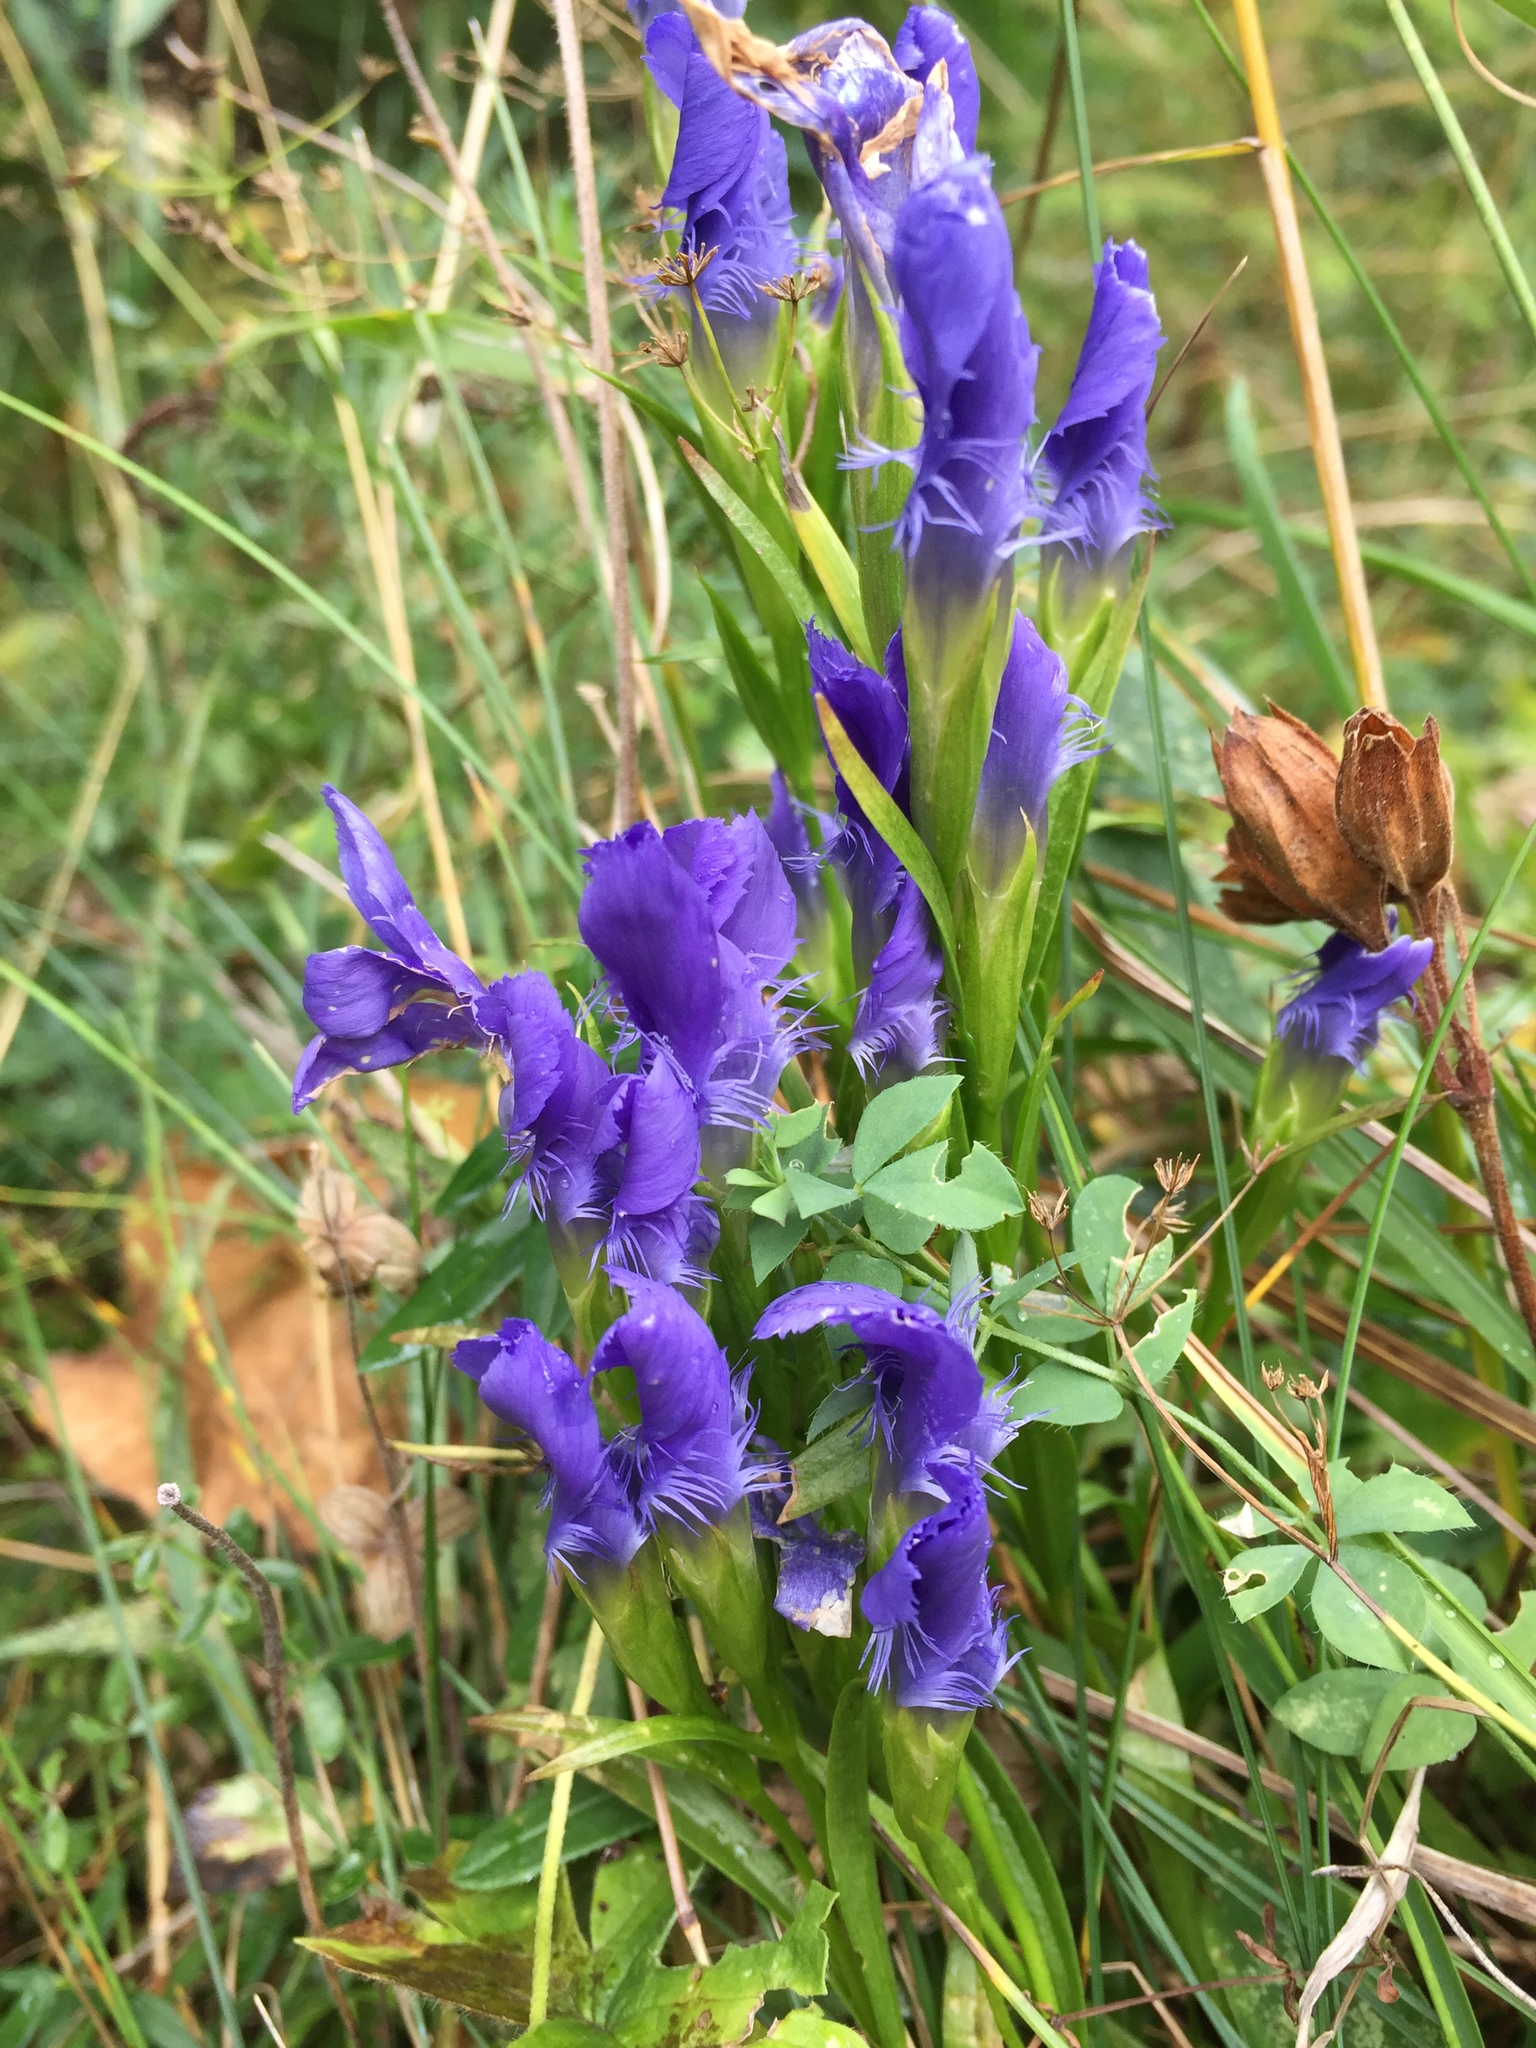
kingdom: Plantae
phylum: Tracheophyta
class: Magnoliopsida
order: Gentianales
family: Gentianaceae
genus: Gentianopsis
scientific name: Gentianopsis ciliata
